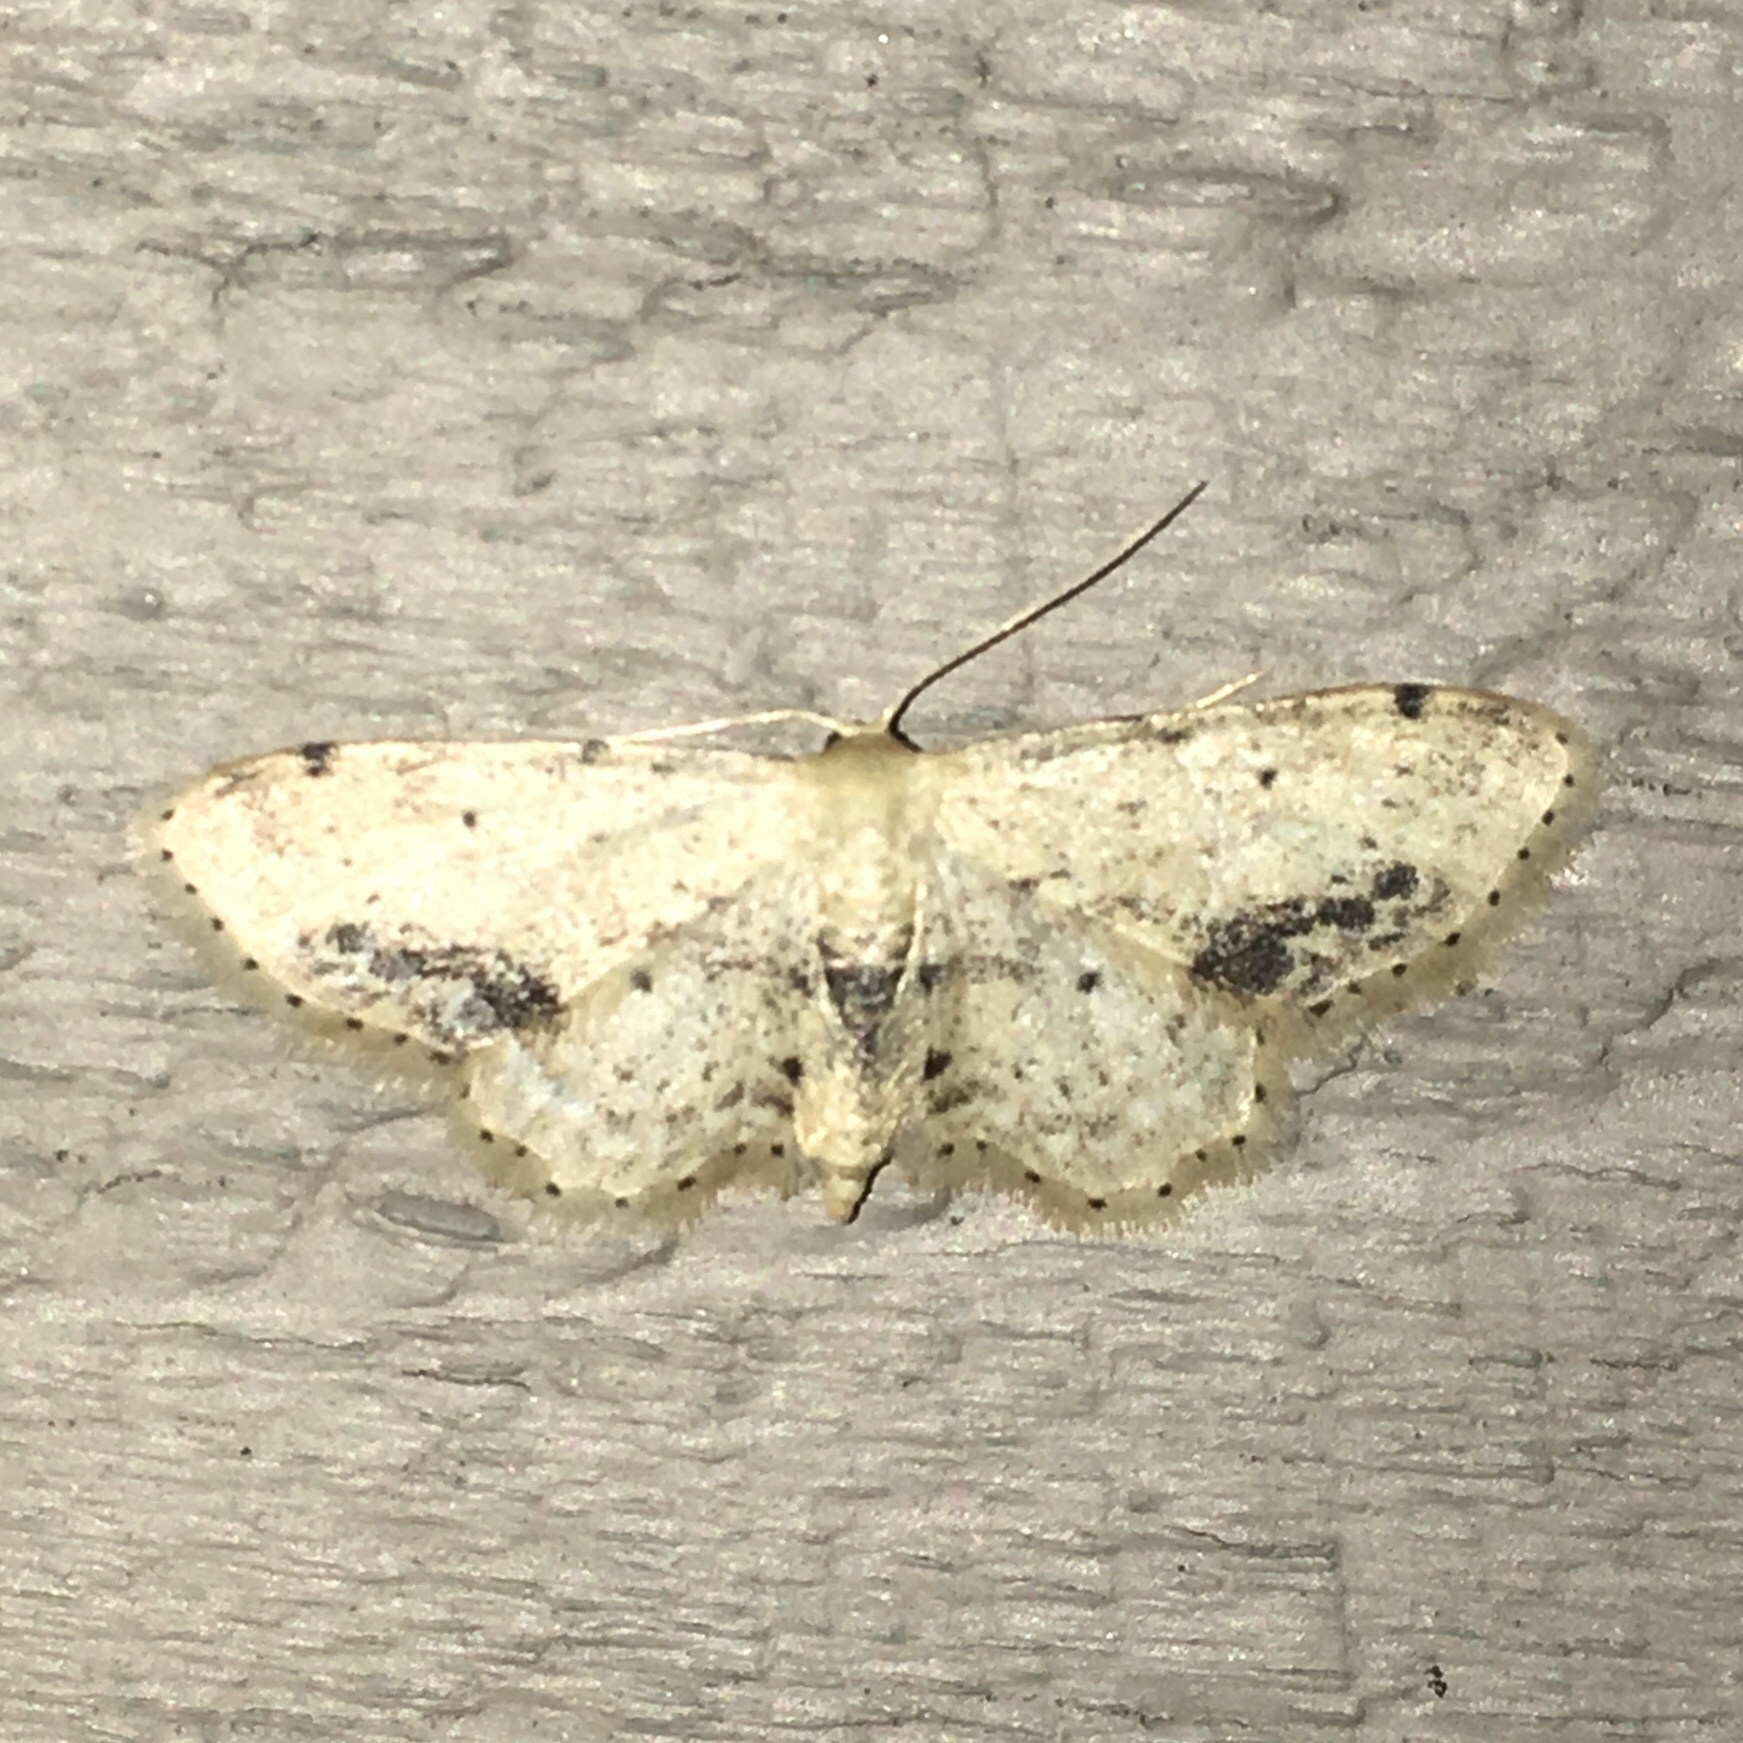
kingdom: Animalia
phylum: Arthropoda
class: Insecta
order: Lepidoptera
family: Geometridae
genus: Idaea
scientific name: Idaea dimidiata
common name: Single-dotted wave
